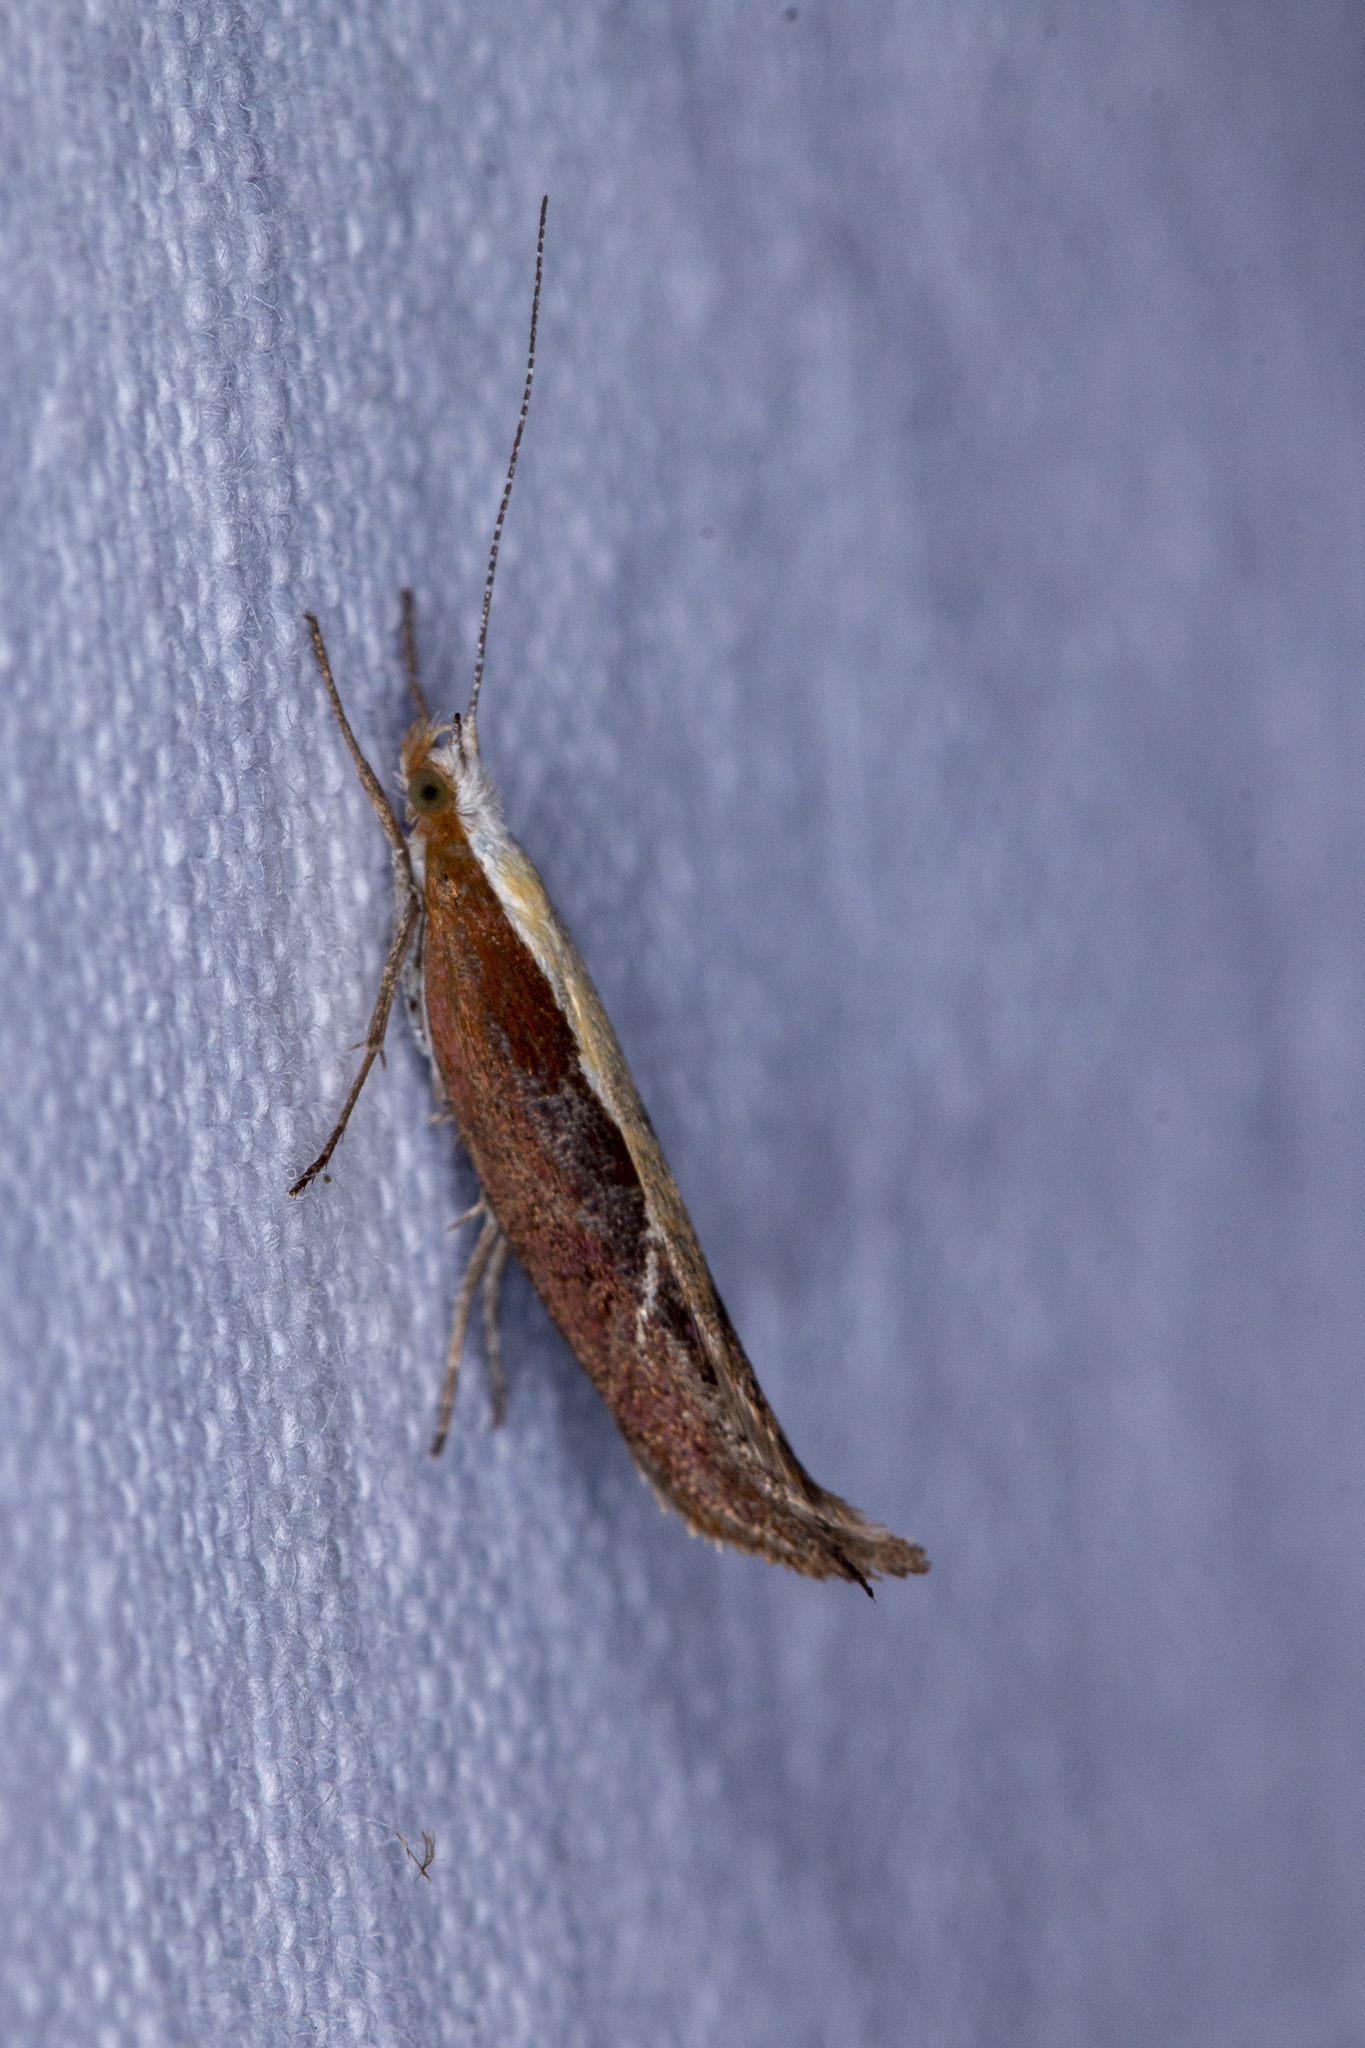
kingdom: Animalia
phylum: Arthropoda
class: Insecta
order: Lepidoptera
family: Ypsolophidae
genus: Ypsolopha
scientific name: Ypsolopha dentella
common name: Honeysuckle moth
